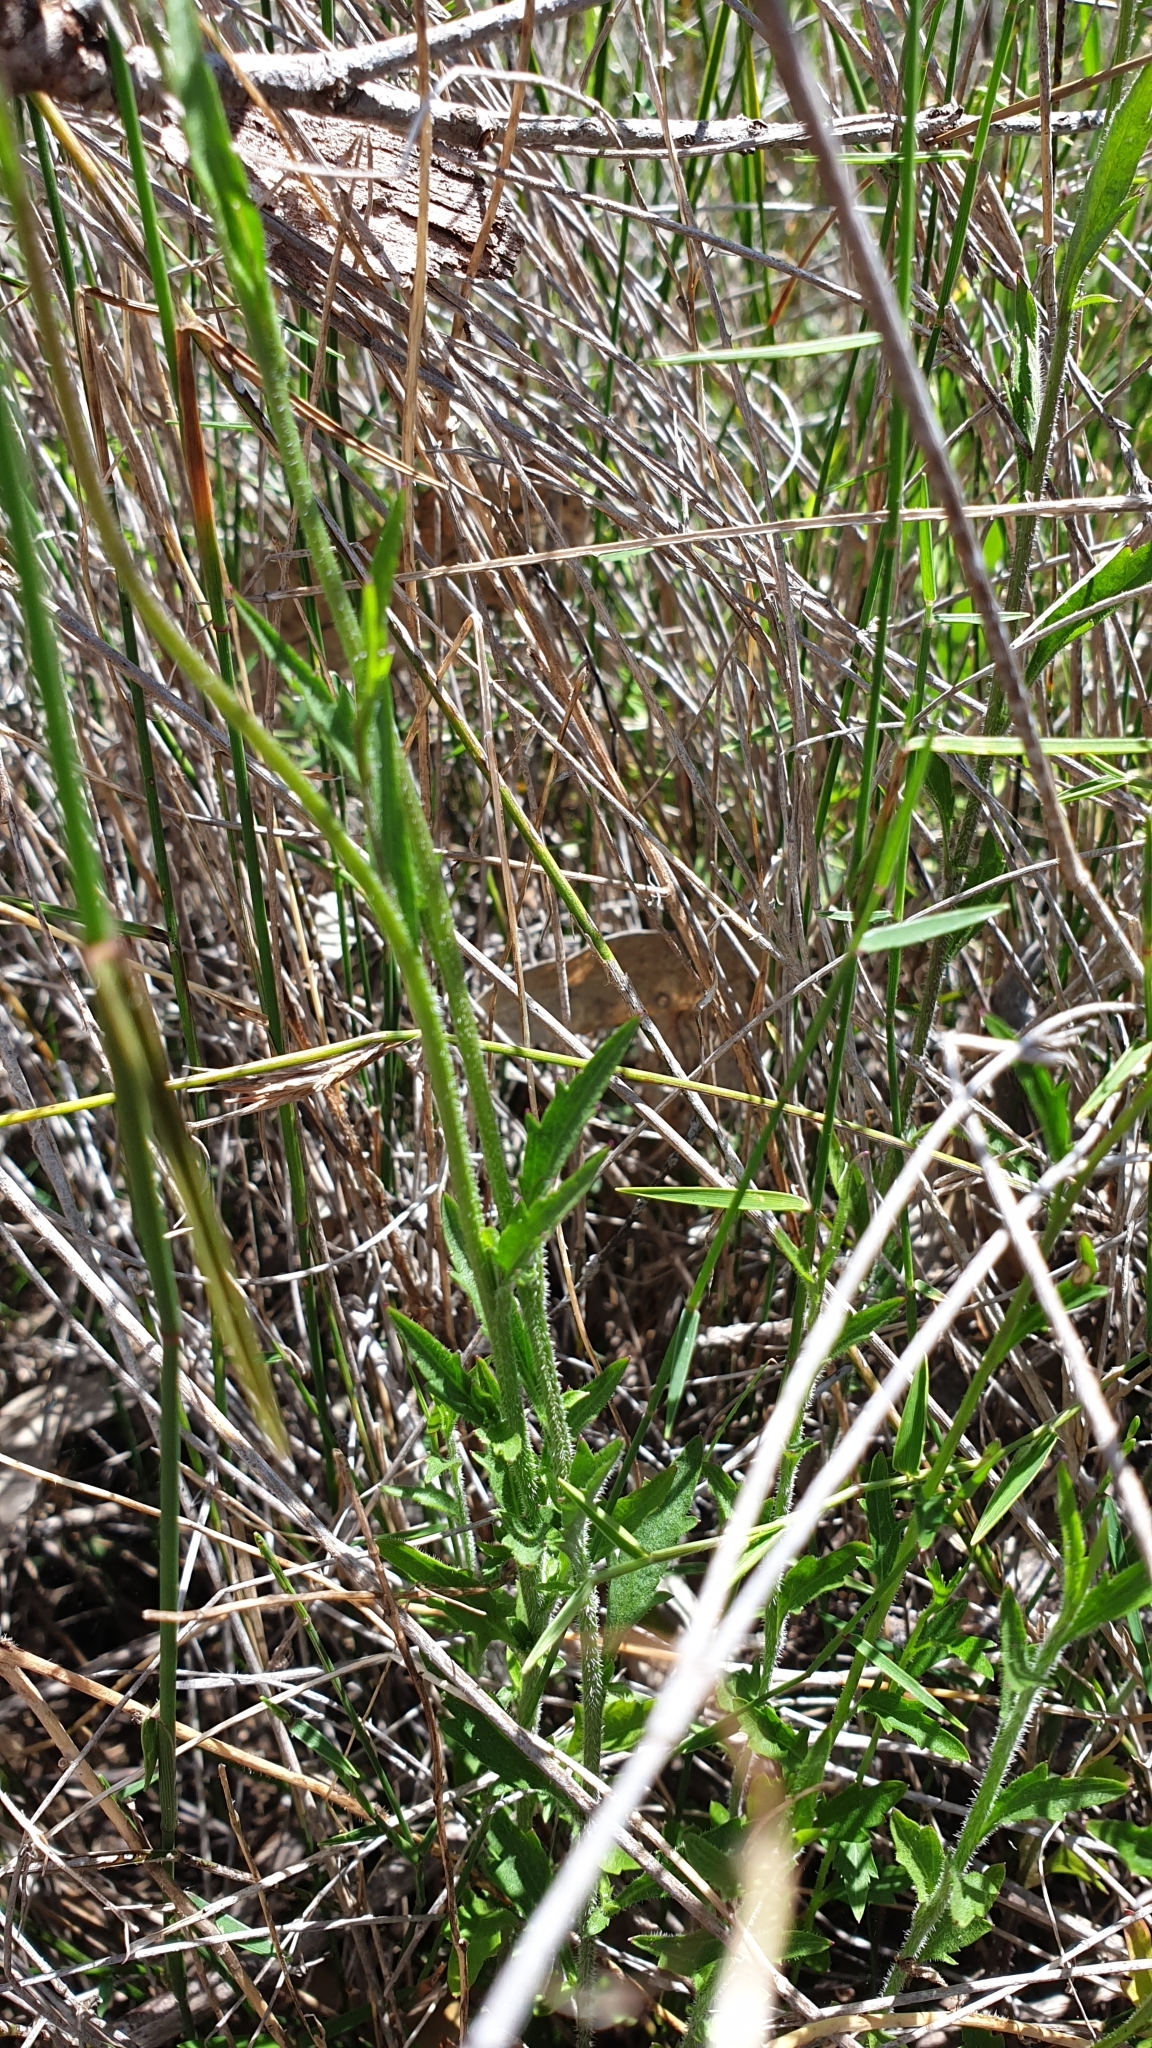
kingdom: Plantae
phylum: Tracheophyta
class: Magnoliopsida
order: Asterales
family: Campanulaceae
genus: Lobelia
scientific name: Lobelia andrewsii
